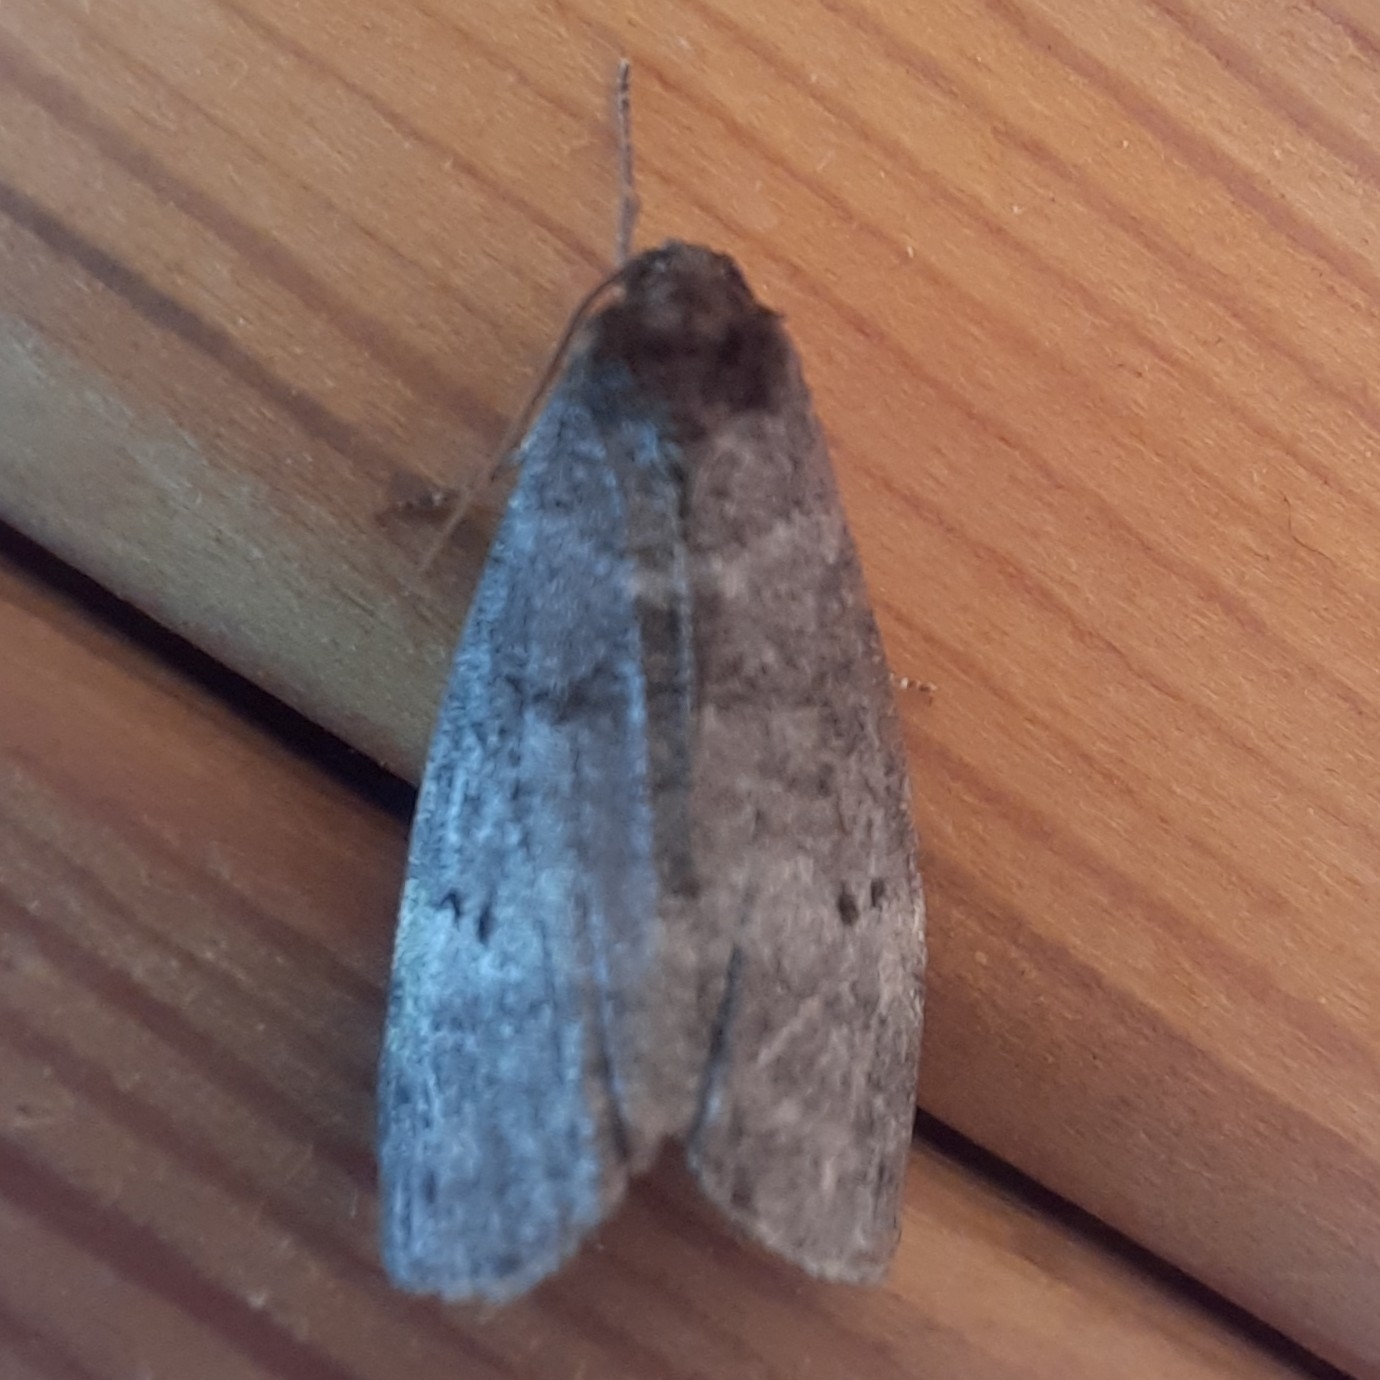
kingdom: Animalia
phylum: Arthropoda
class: Insecta
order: Lepidoptera
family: Drepanidae
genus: Ochropacha
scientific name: Ochropacha duplaris
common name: Common lutestring
